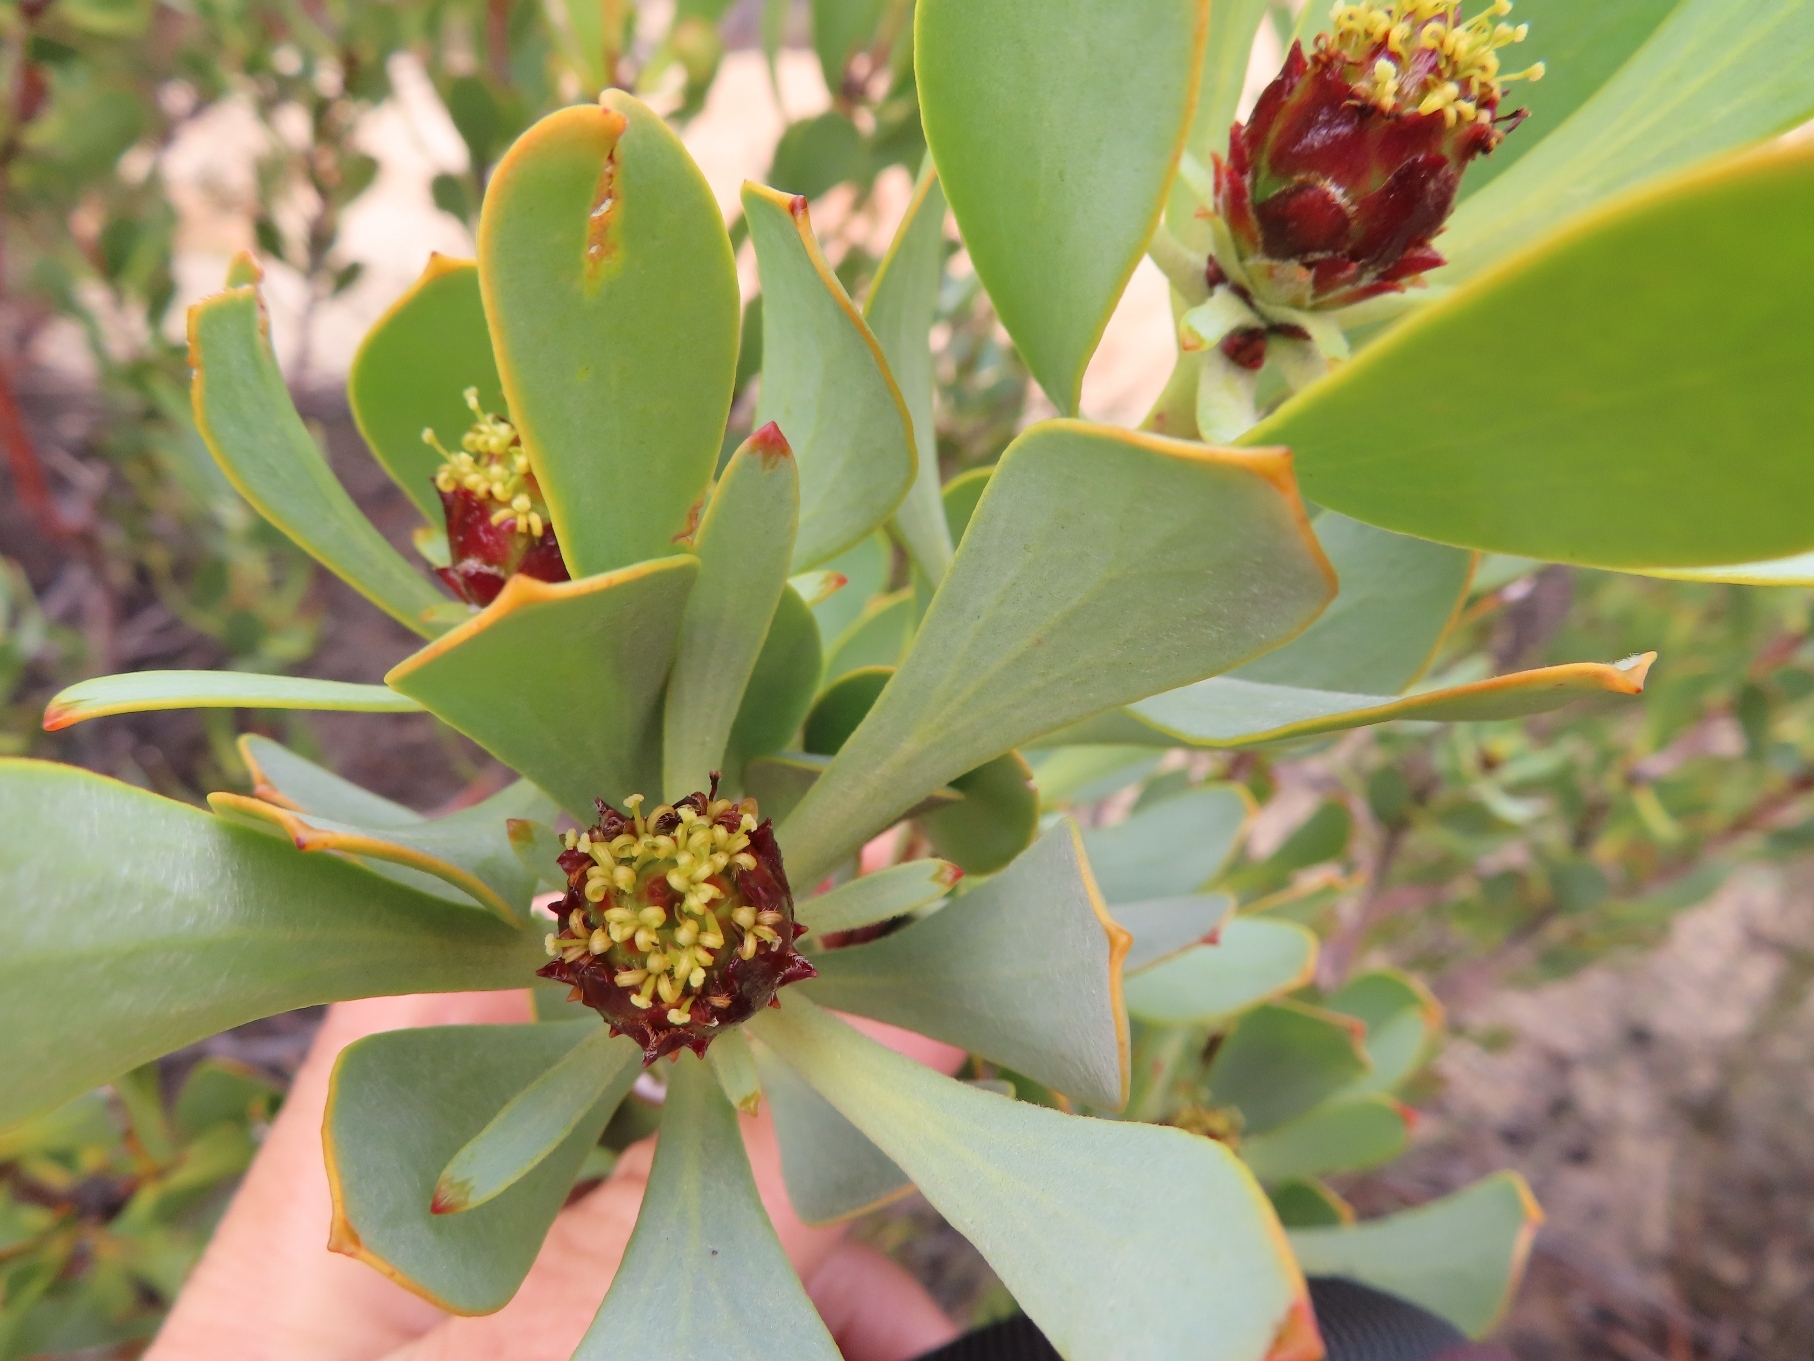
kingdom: Plantae
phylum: Tracheophyta
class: Magnoliopsida
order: Proteales
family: Proteaceae
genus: Leucadendron
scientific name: Leucadendron loranthifolium
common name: Green-flower sunbush
